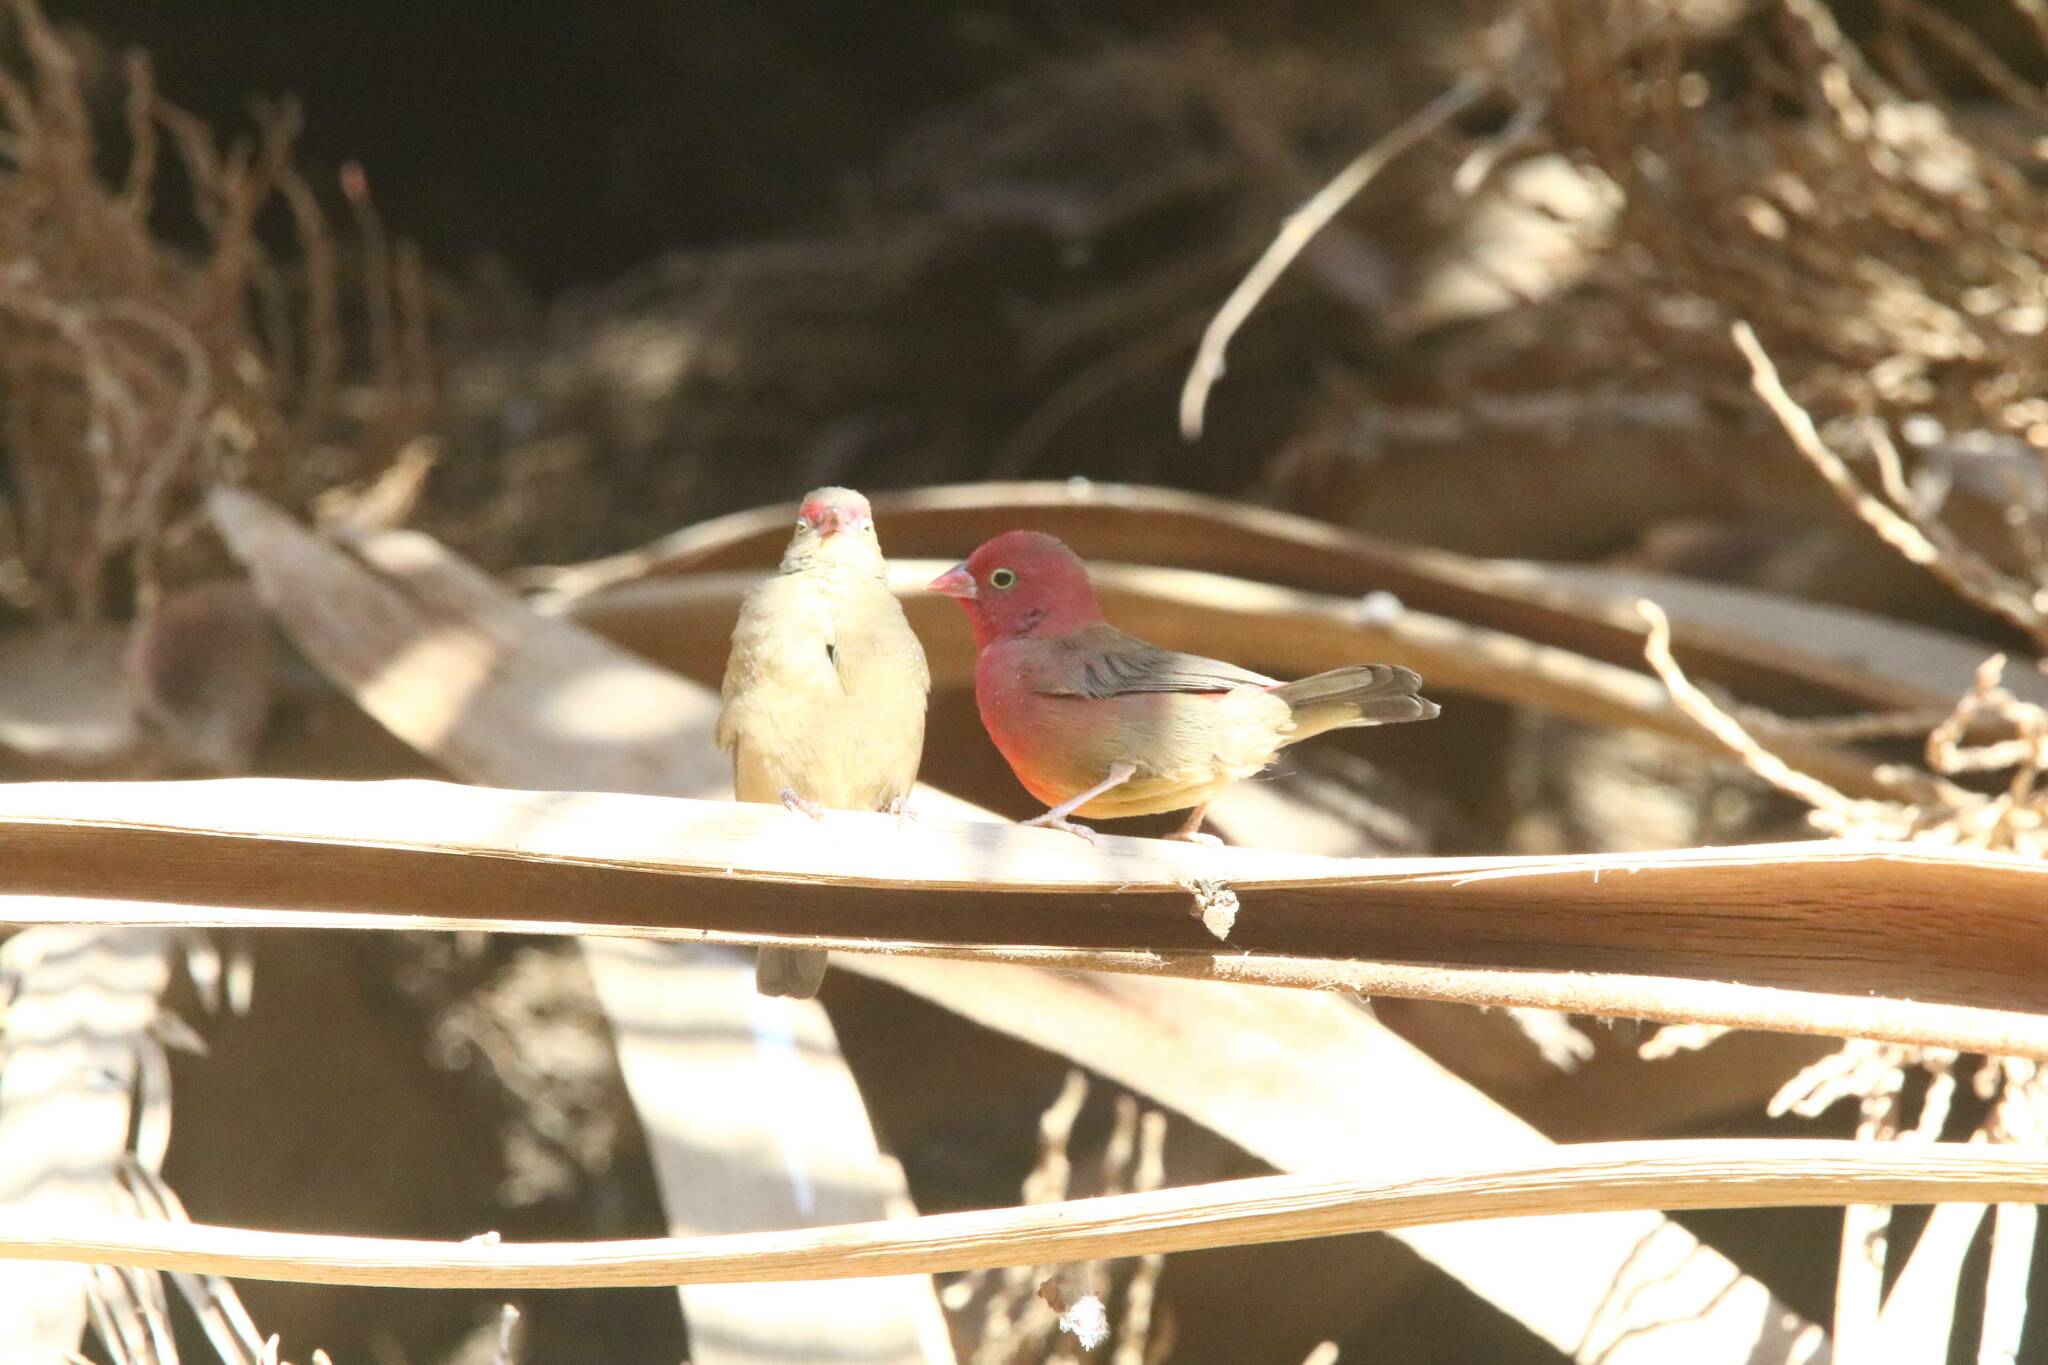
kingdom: Animalia
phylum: Chordata
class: Aves
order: Passeriformes
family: Estrildidae
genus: Lagonosticta
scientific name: Lagonosticta senegala
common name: Red-billed firefinch
